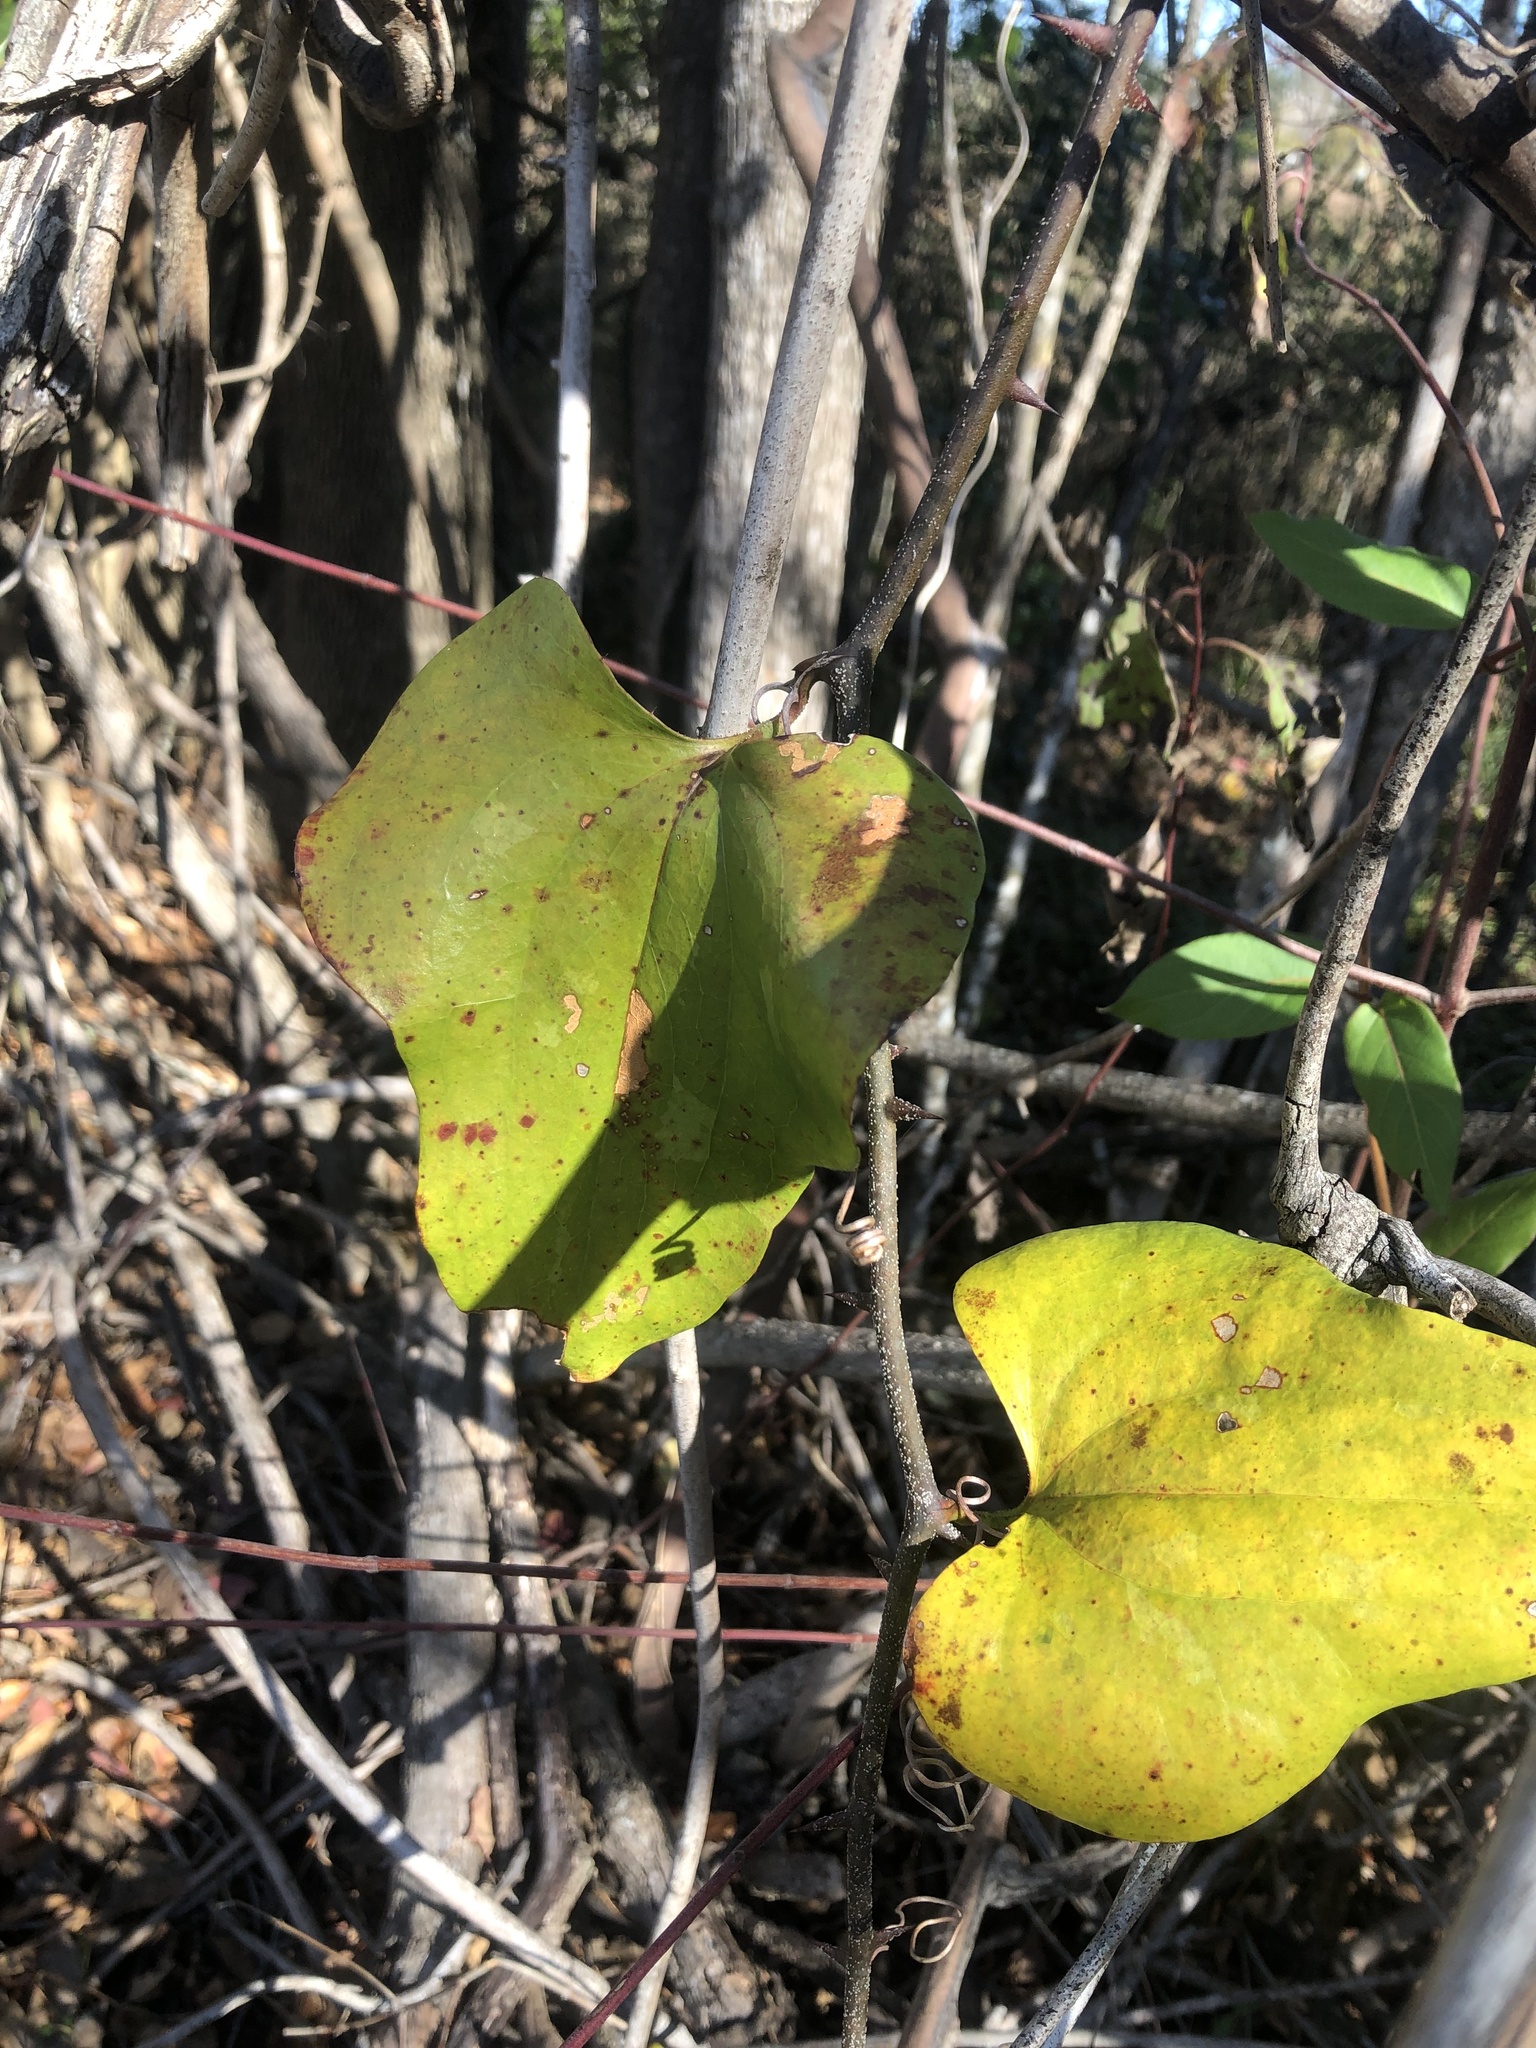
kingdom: Plantae
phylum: Tracheophyta
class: Liliopsida
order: Liliales
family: Smilacaceae
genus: Smilax
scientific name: Smilax bona-nox
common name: Catbrier
